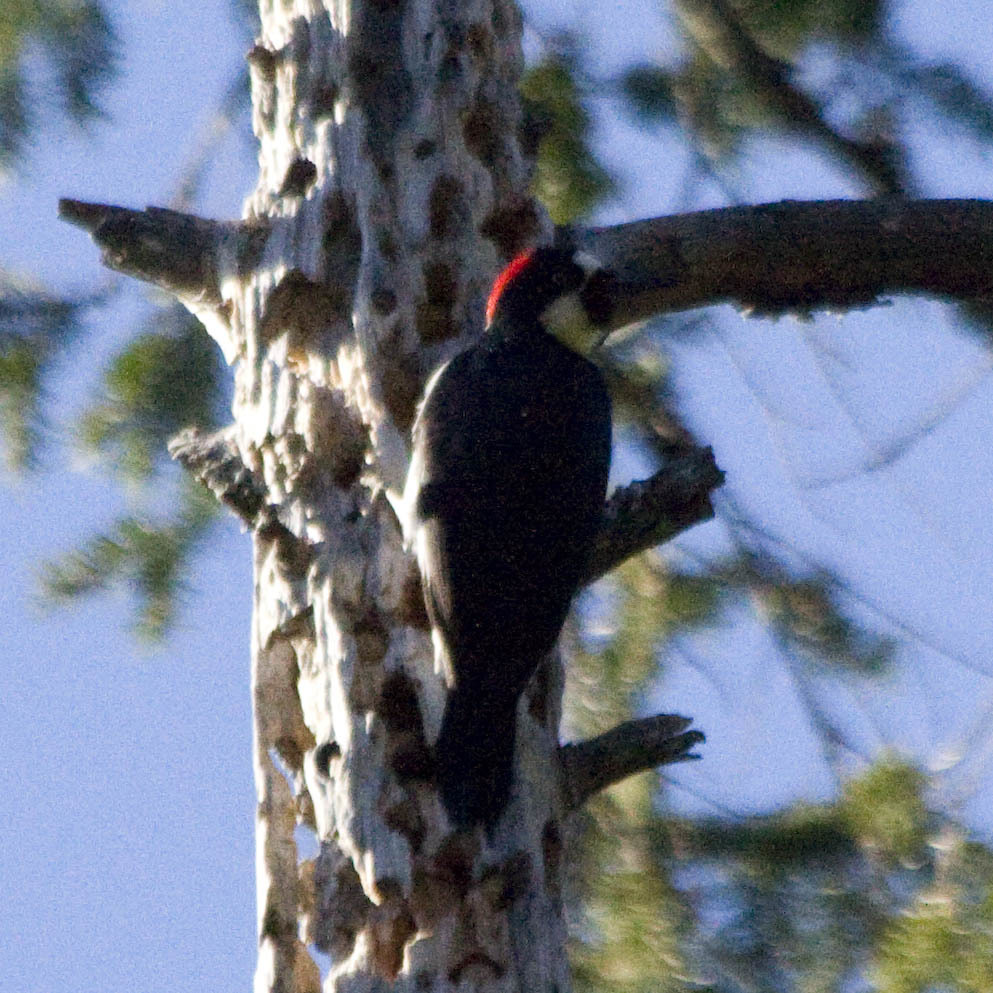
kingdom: Animalia
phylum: Chordata
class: Aves
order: Piciformes
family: Picidae
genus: Melanerpes
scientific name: Melanerpes formicivorus
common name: Acorn woodpecker
